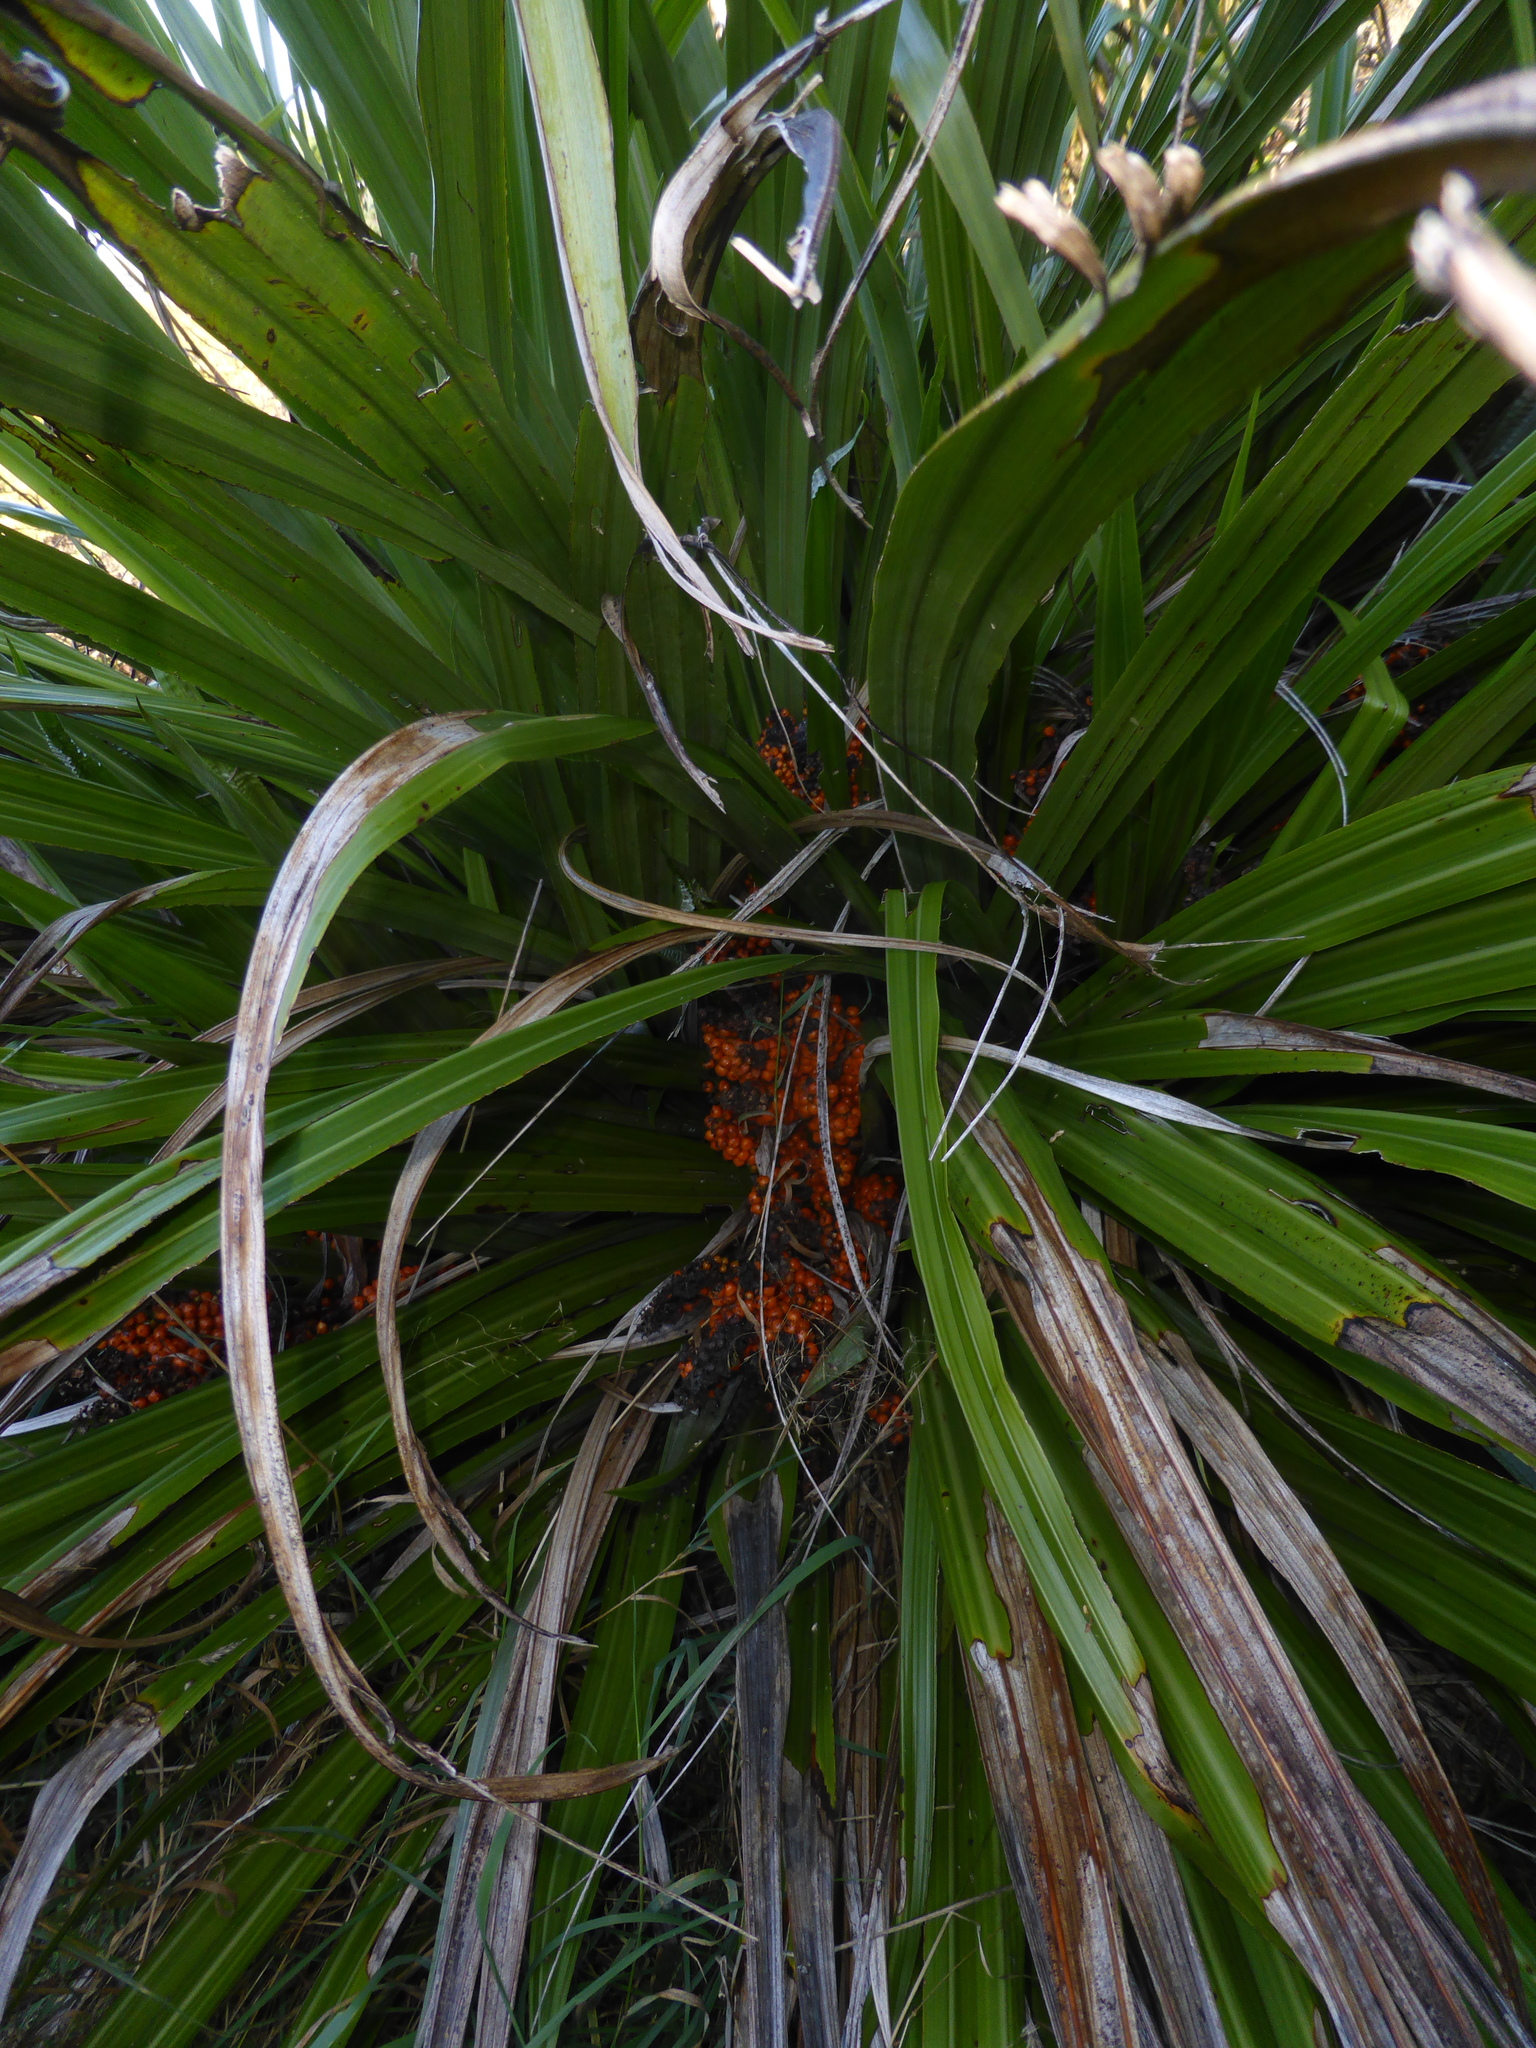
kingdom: Plantae
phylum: Tracheophyta
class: Liliopsida
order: Asparagales
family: Asteliaceae
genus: Astelia
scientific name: Astelia fragrans
